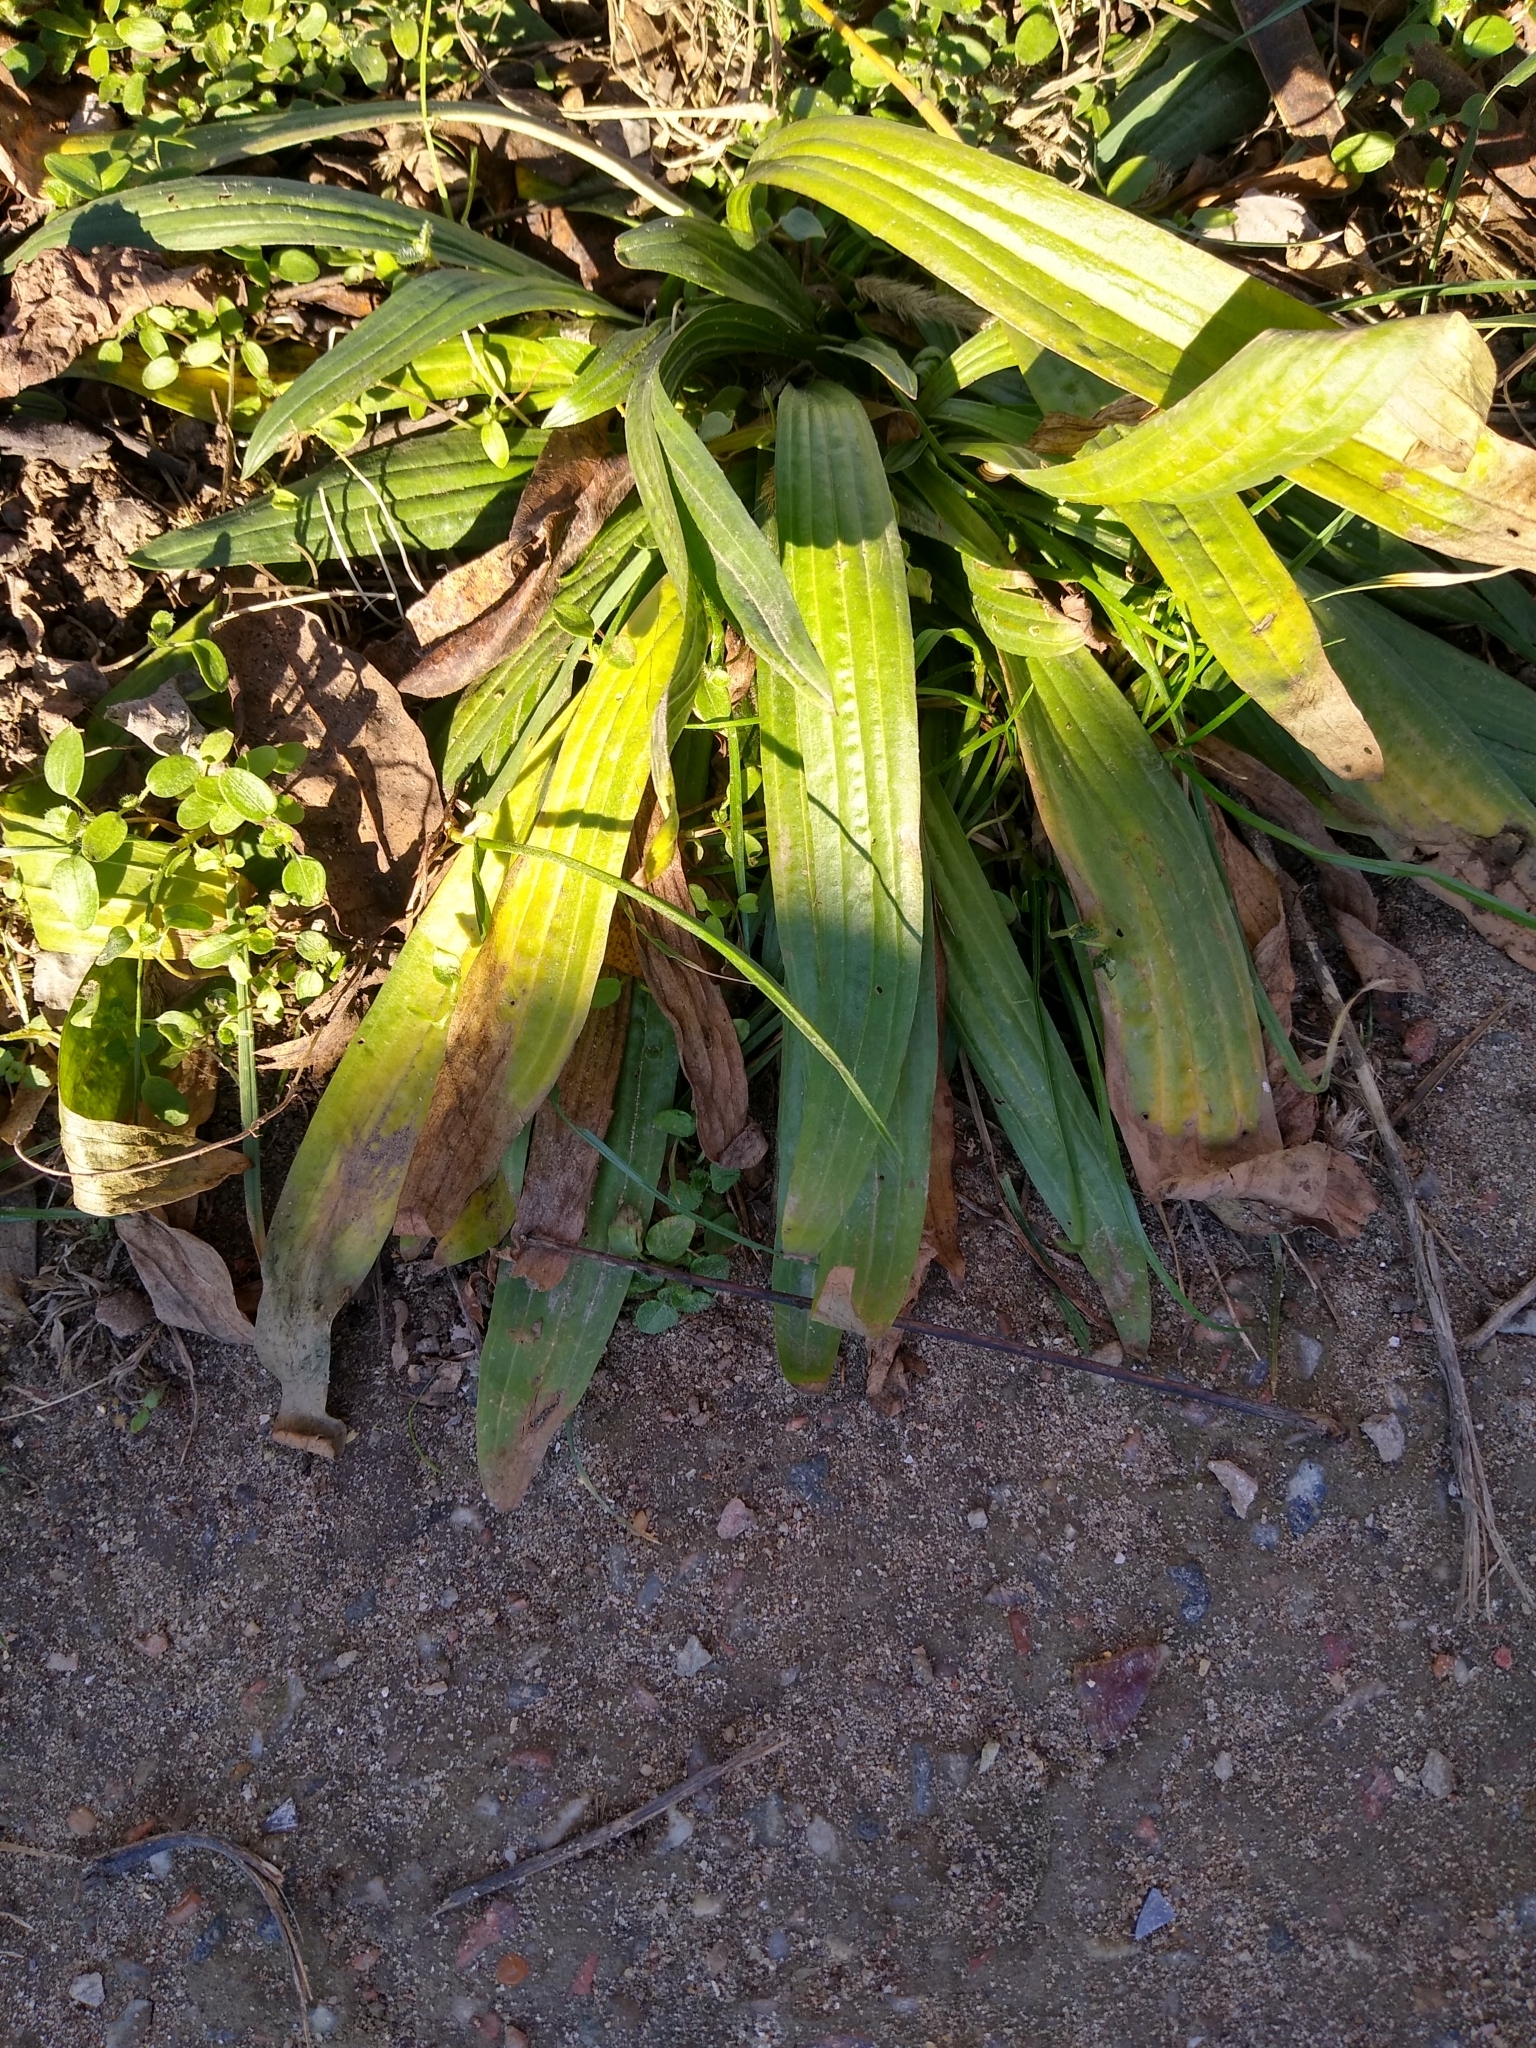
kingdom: Plantae
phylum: Tracheophyta
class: Magnoliopsida
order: Lamiales
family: Plantaginaceae
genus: Plantago
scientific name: Plantago lanceolata
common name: Ribwort plantain
